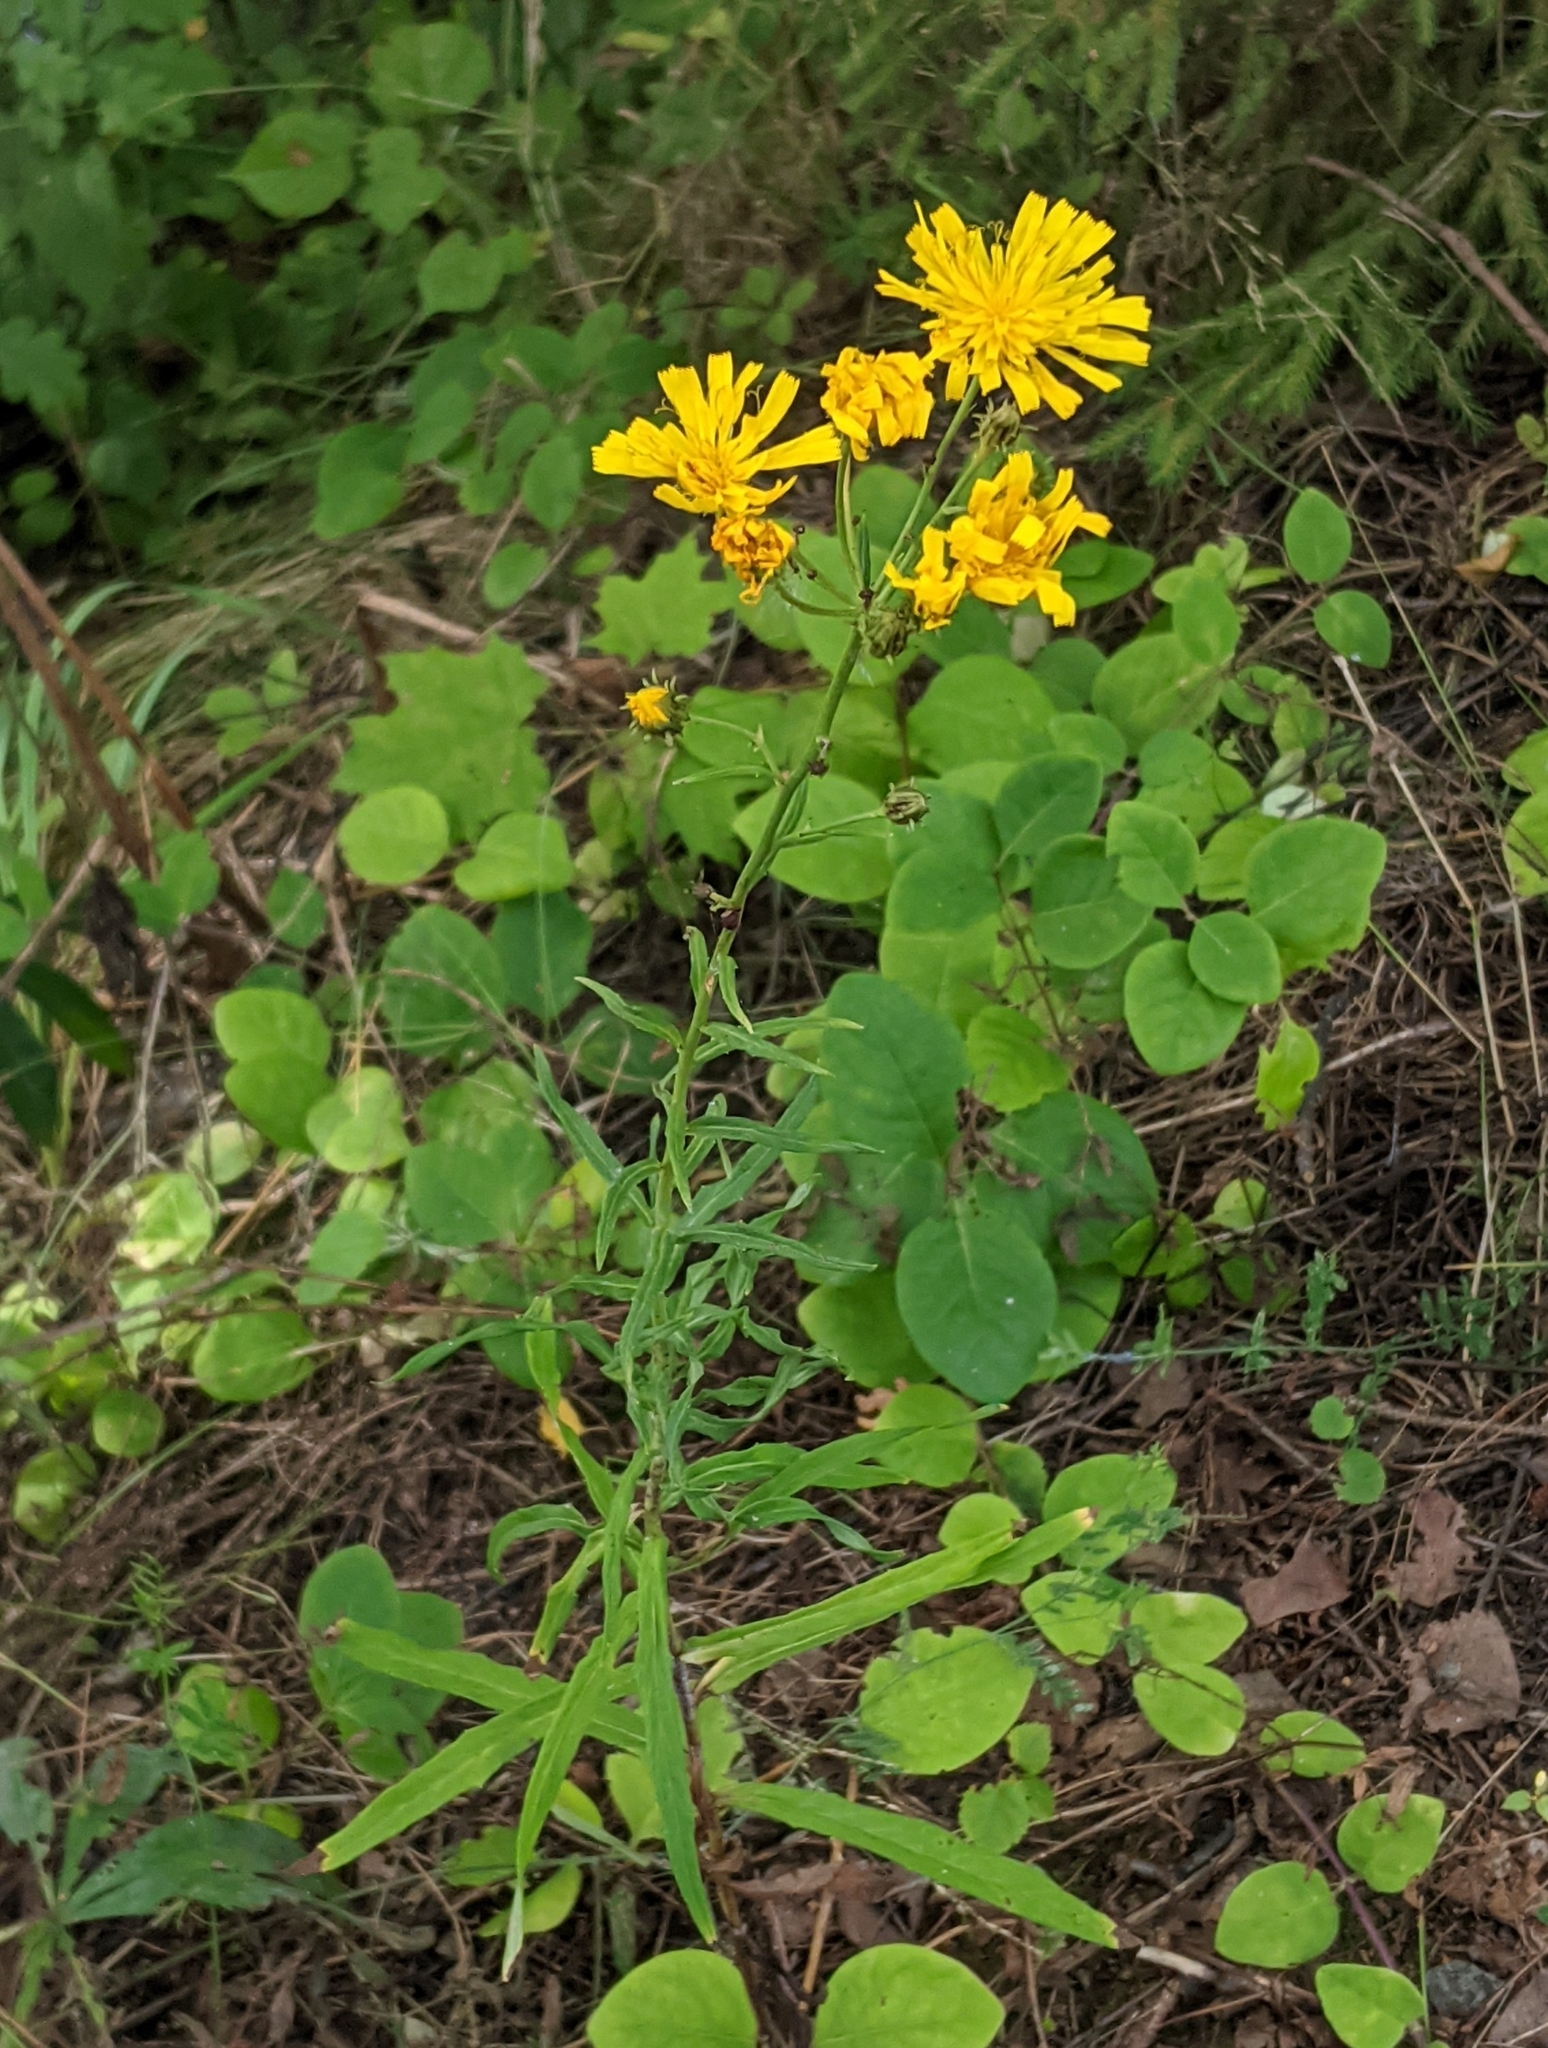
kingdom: Plantae
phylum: Tracheophyta
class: Magnoliopsida
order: Asterales
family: Asteraceae
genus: Hieracium
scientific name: Hieracium umbellatum
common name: Northern hawkweed
